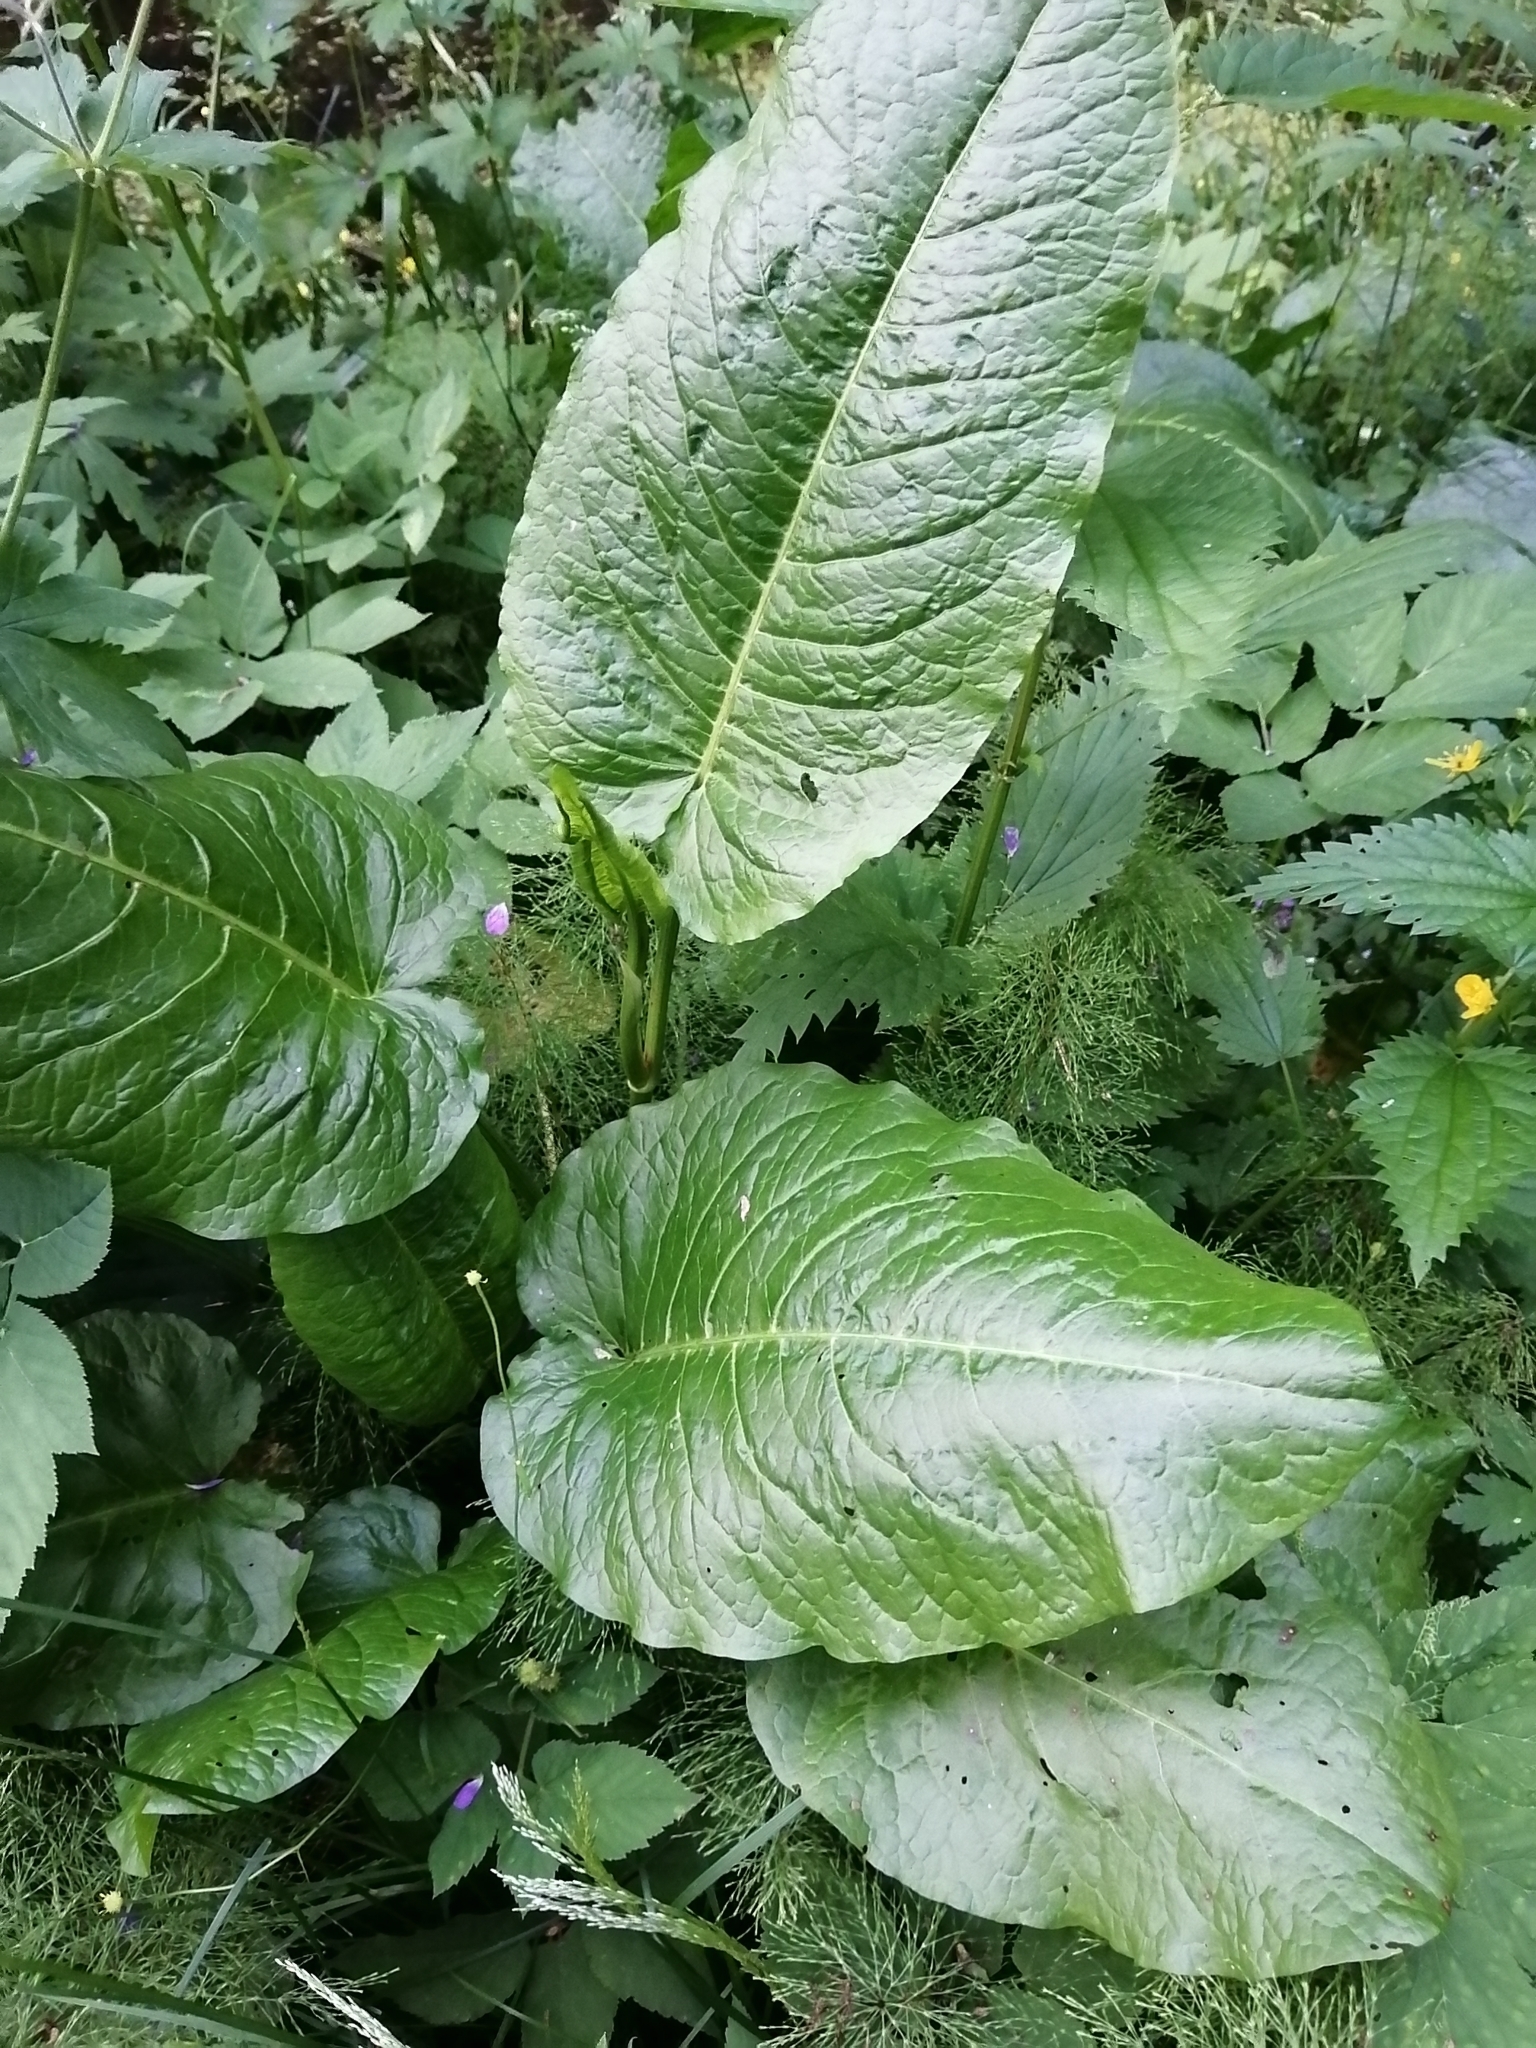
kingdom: Plantae
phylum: Tracheophyta
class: Magnoliopsida
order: Caryophyllales
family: Polygonaceae
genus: Rumex
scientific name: Rumex obtusifolius
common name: Bitter dock
